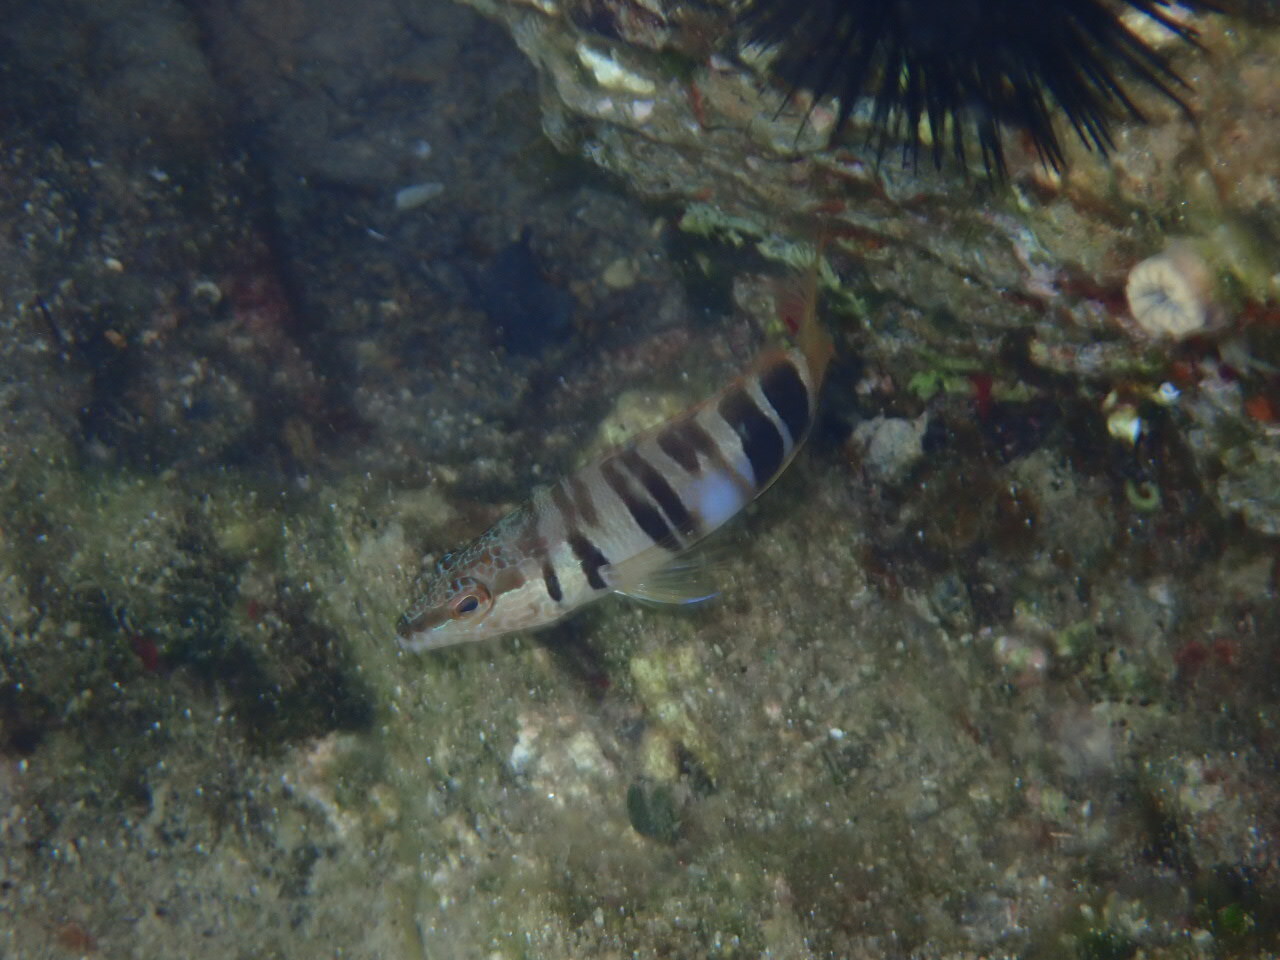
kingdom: Animalia
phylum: Chordata
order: Perciformes
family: Serranidae
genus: Serranus
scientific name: Serranus scriba
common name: Painted comber
